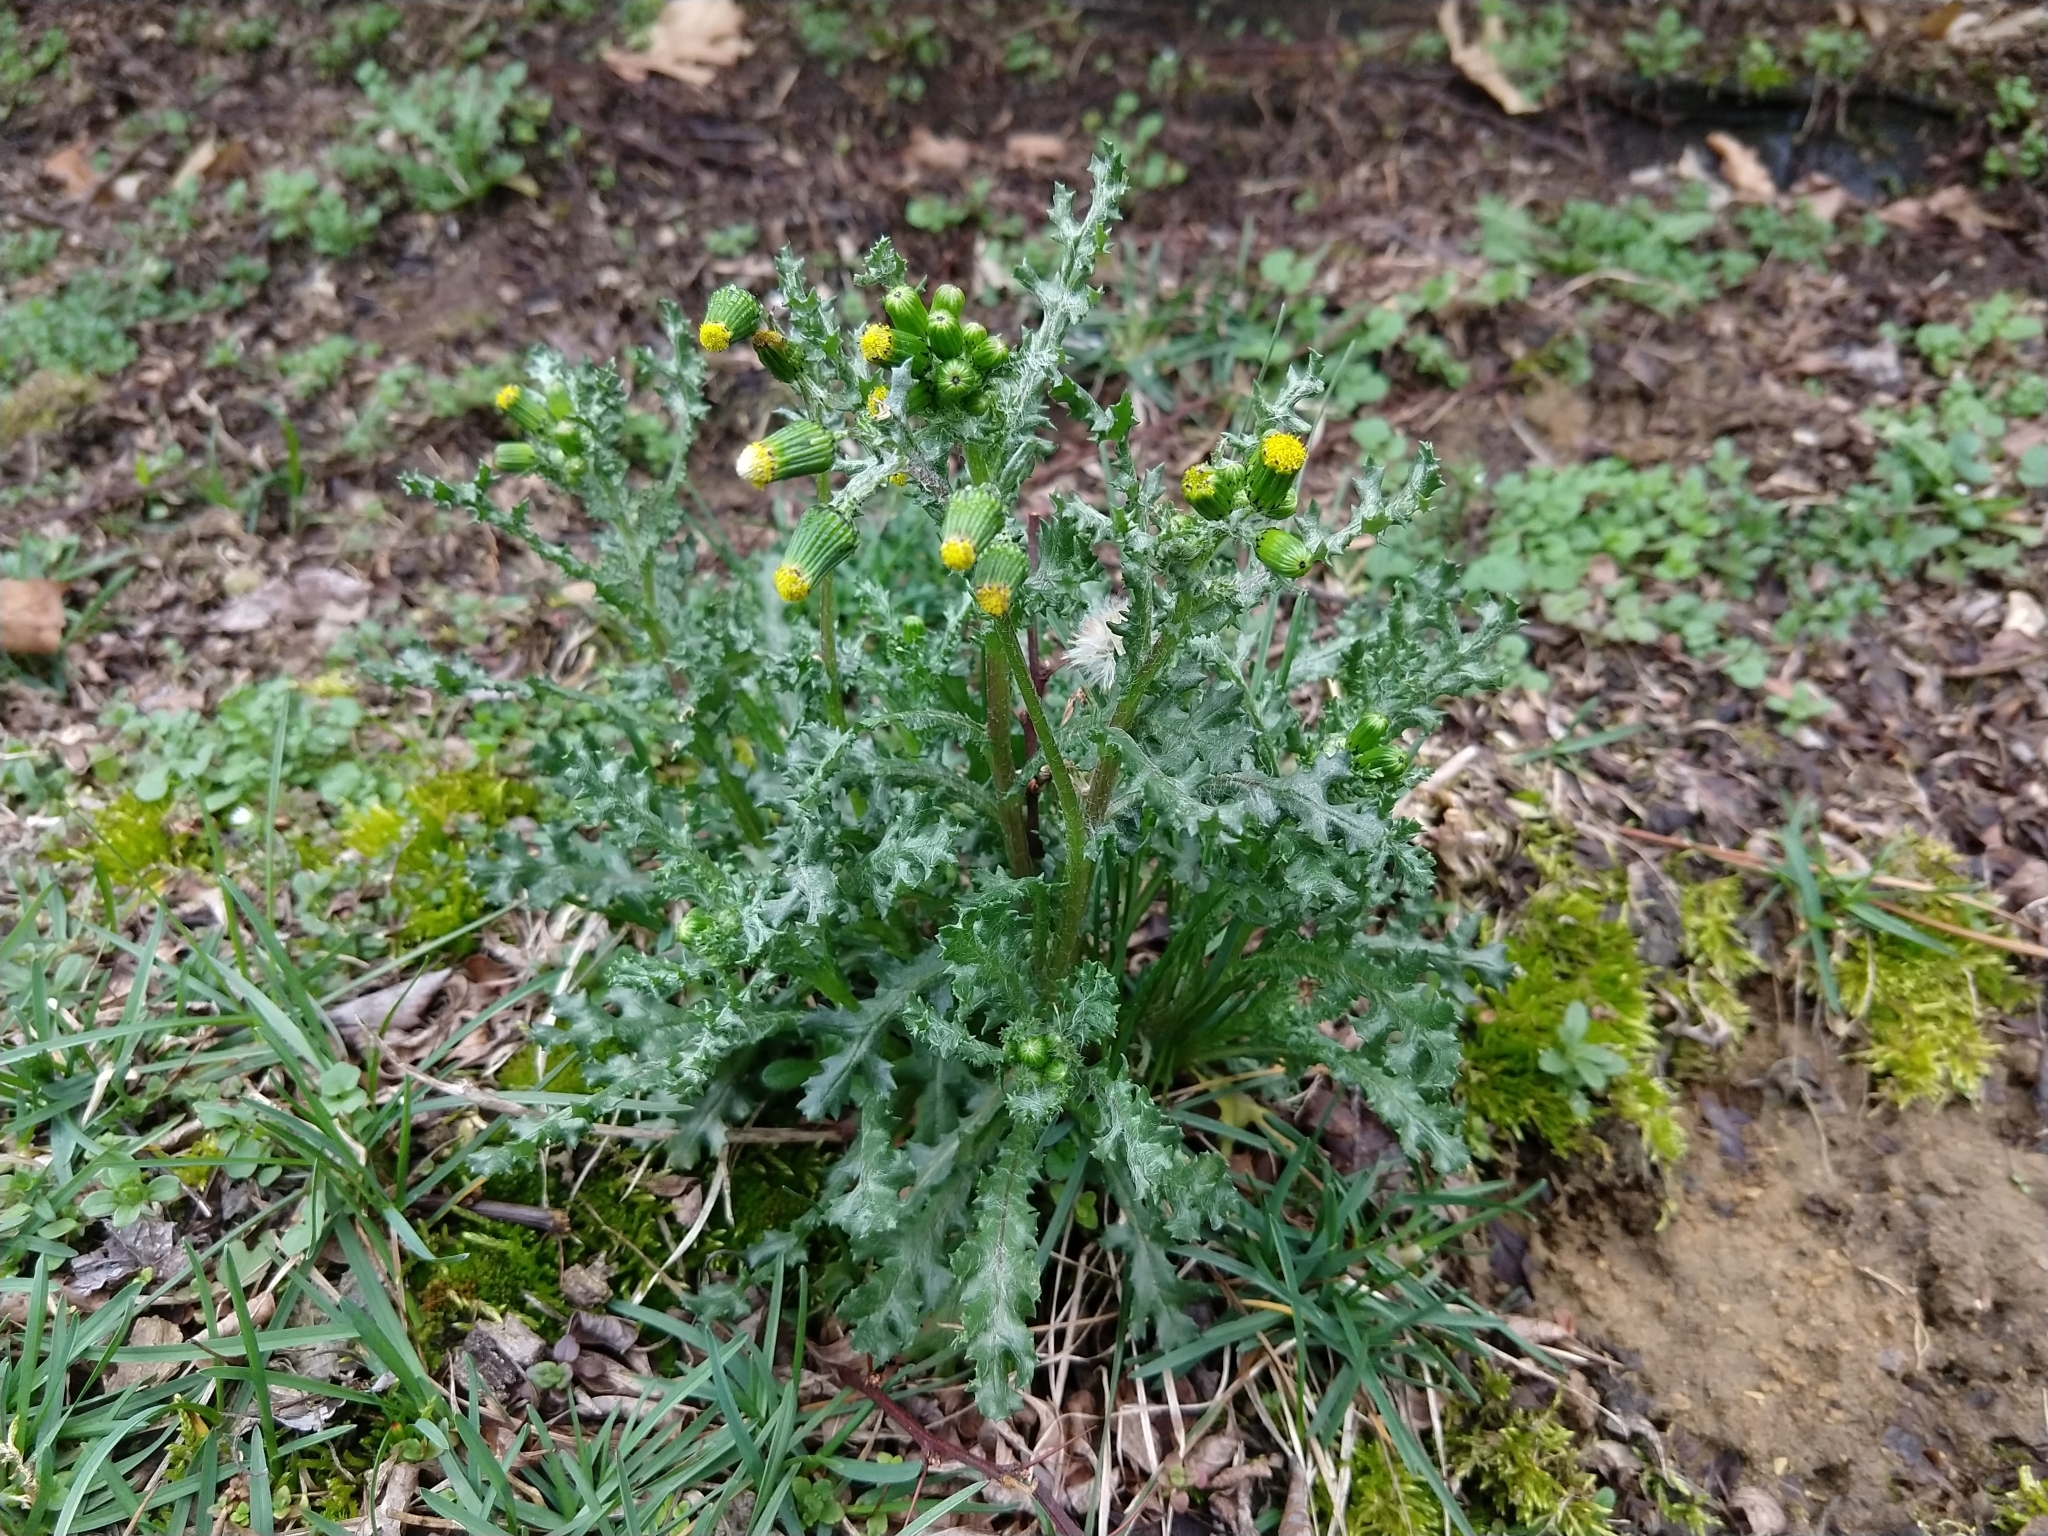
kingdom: Plantae
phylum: Tracheophyta
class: Magnoliopsida
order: Asterales
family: Asteraceae
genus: Senecio
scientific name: Senecio vulgaris
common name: Old-man-in-the-spring
